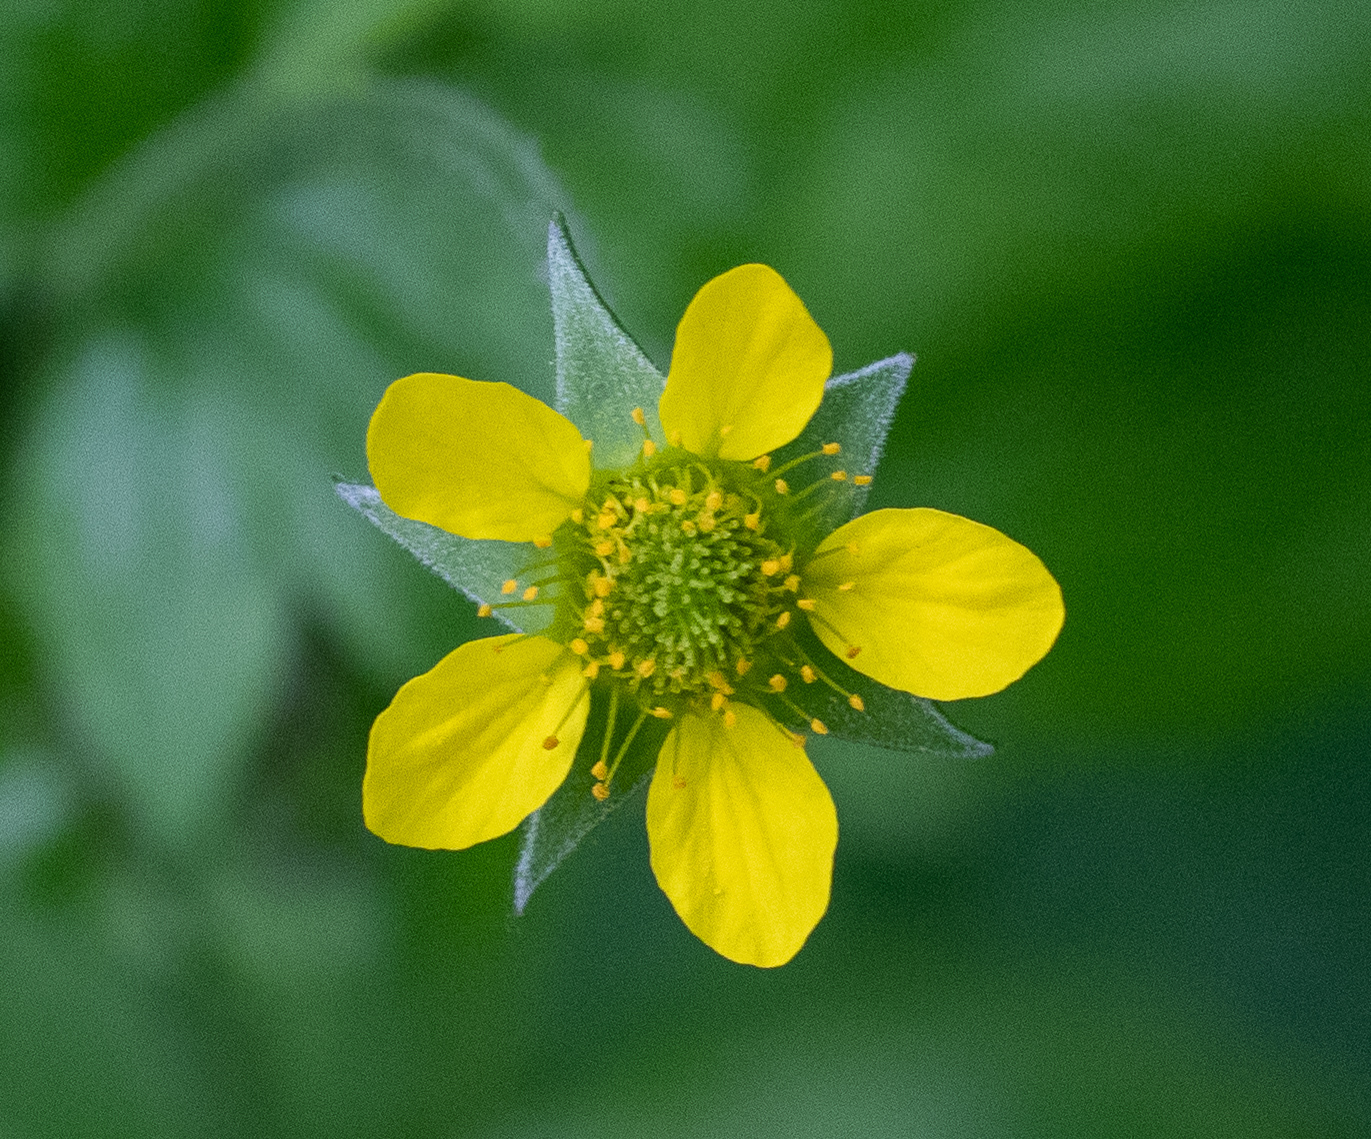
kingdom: Plantae
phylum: Tracheophyta
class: Magnoliopsida
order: Rosales
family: Rosaceae
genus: Geum
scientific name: Geum urbanum
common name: Wood avens
